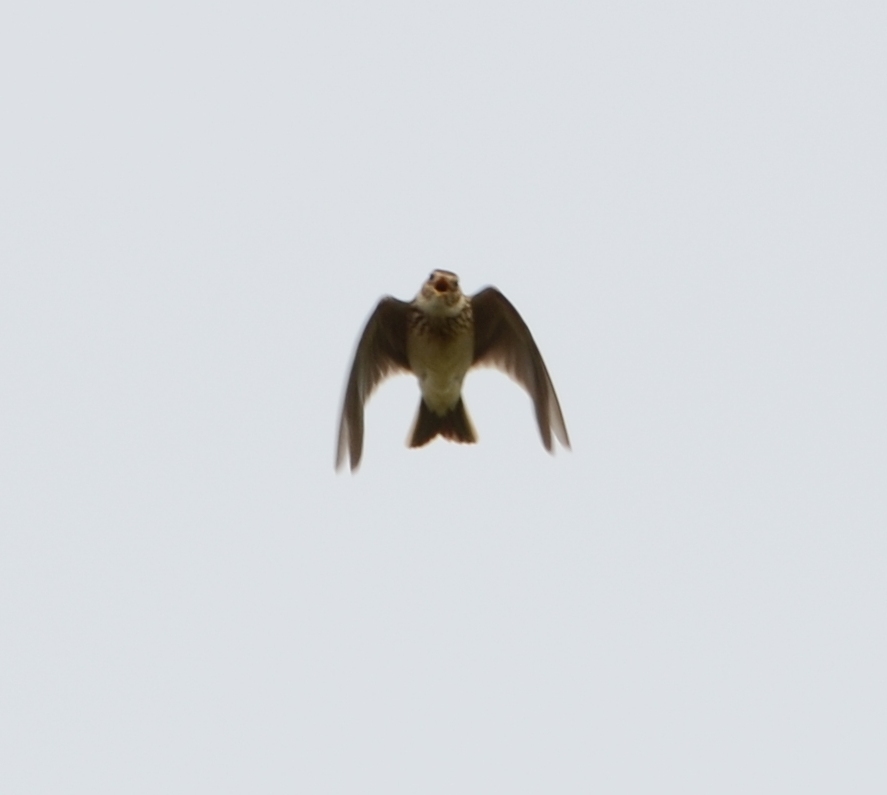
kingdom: Animalia
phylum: Chordata
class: Aves
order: Passeriformes
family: Alaudidae
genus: Alauda
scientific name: Alauda arvensis
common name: Eurasian skylark
